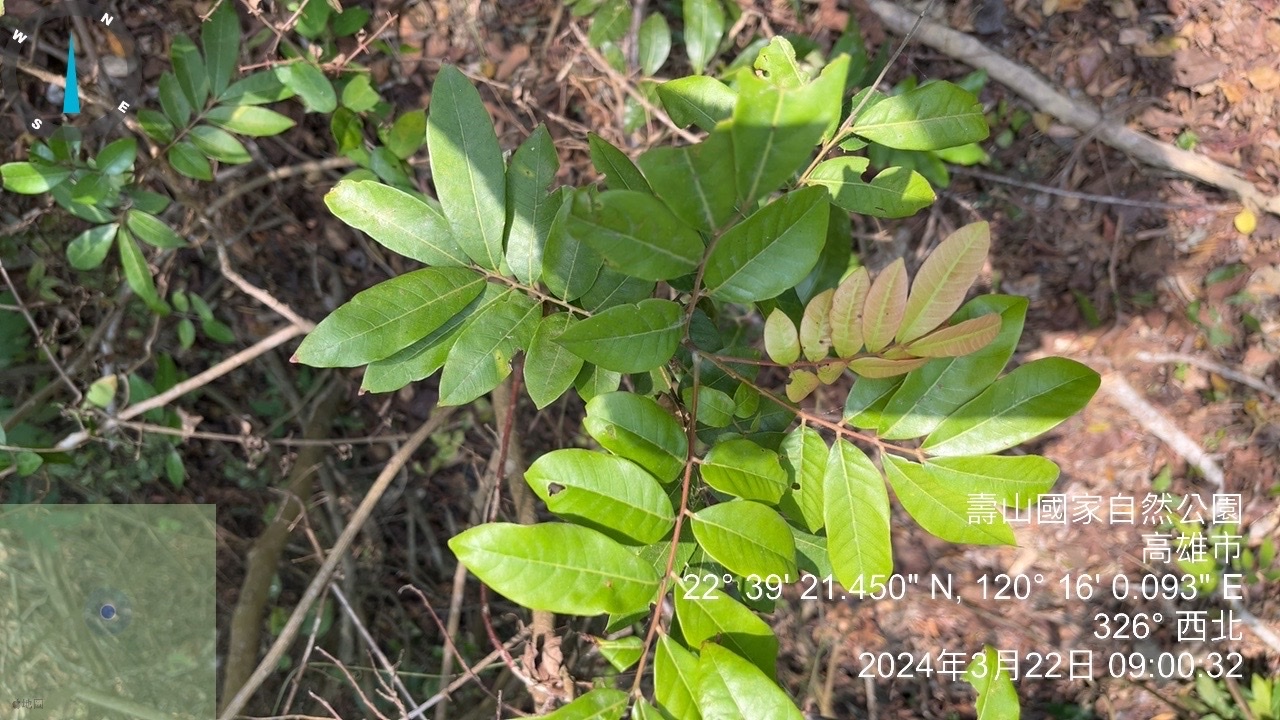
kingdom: Plantae
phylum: Tracheophyta
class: Magnoliopsida
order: Sapindales
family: Sapindaceae
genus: Dimocarpus
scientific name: Dimocarpus longan
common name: Longan
